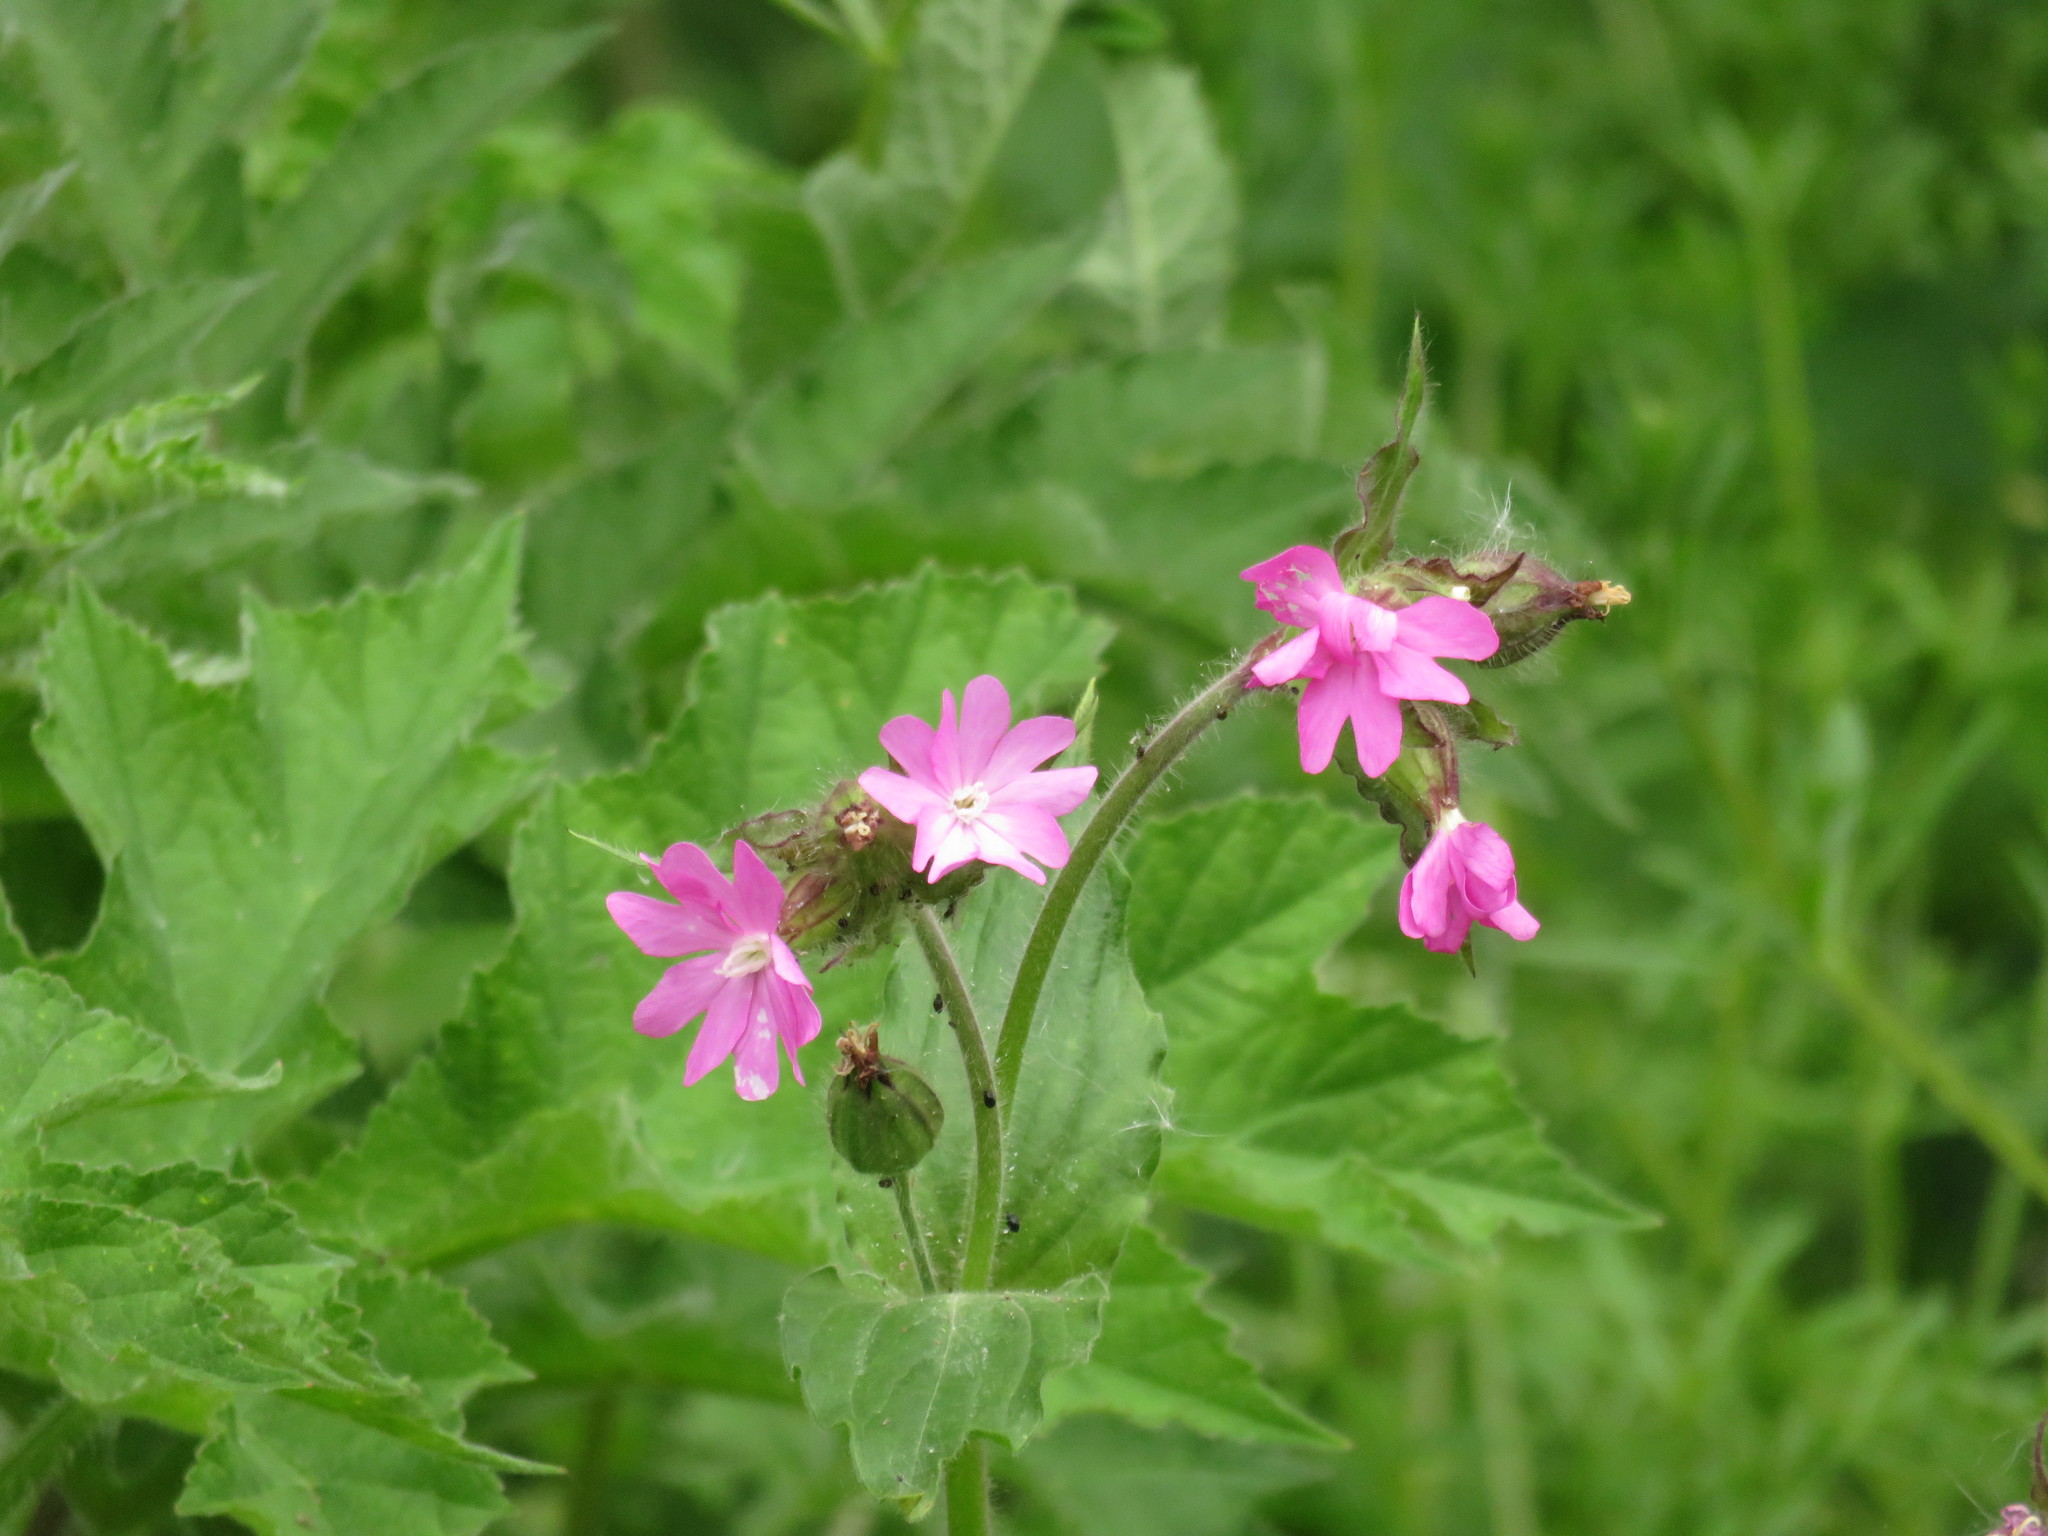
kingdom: Plantae
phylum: Tracheophyta
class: Magnoliopsida
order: Caryophyllales
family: Caryophyllaceae
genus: Silene
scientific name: Silene dioica
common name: Red campion
